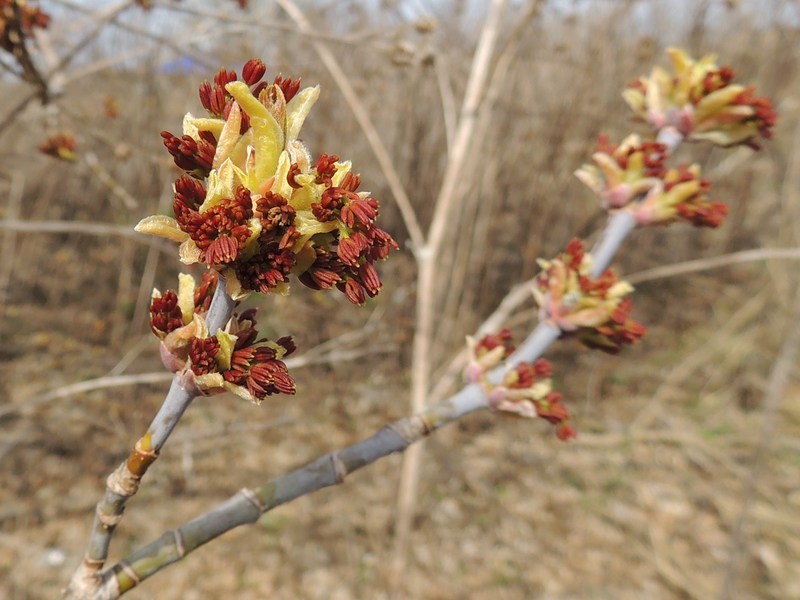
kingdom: Plantae
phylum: Tracheophyta
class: Magnoliopsida
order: Sapindales
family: Sapindaceae
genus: Acer
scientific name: Acer negundo
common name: Ashleaf maple
